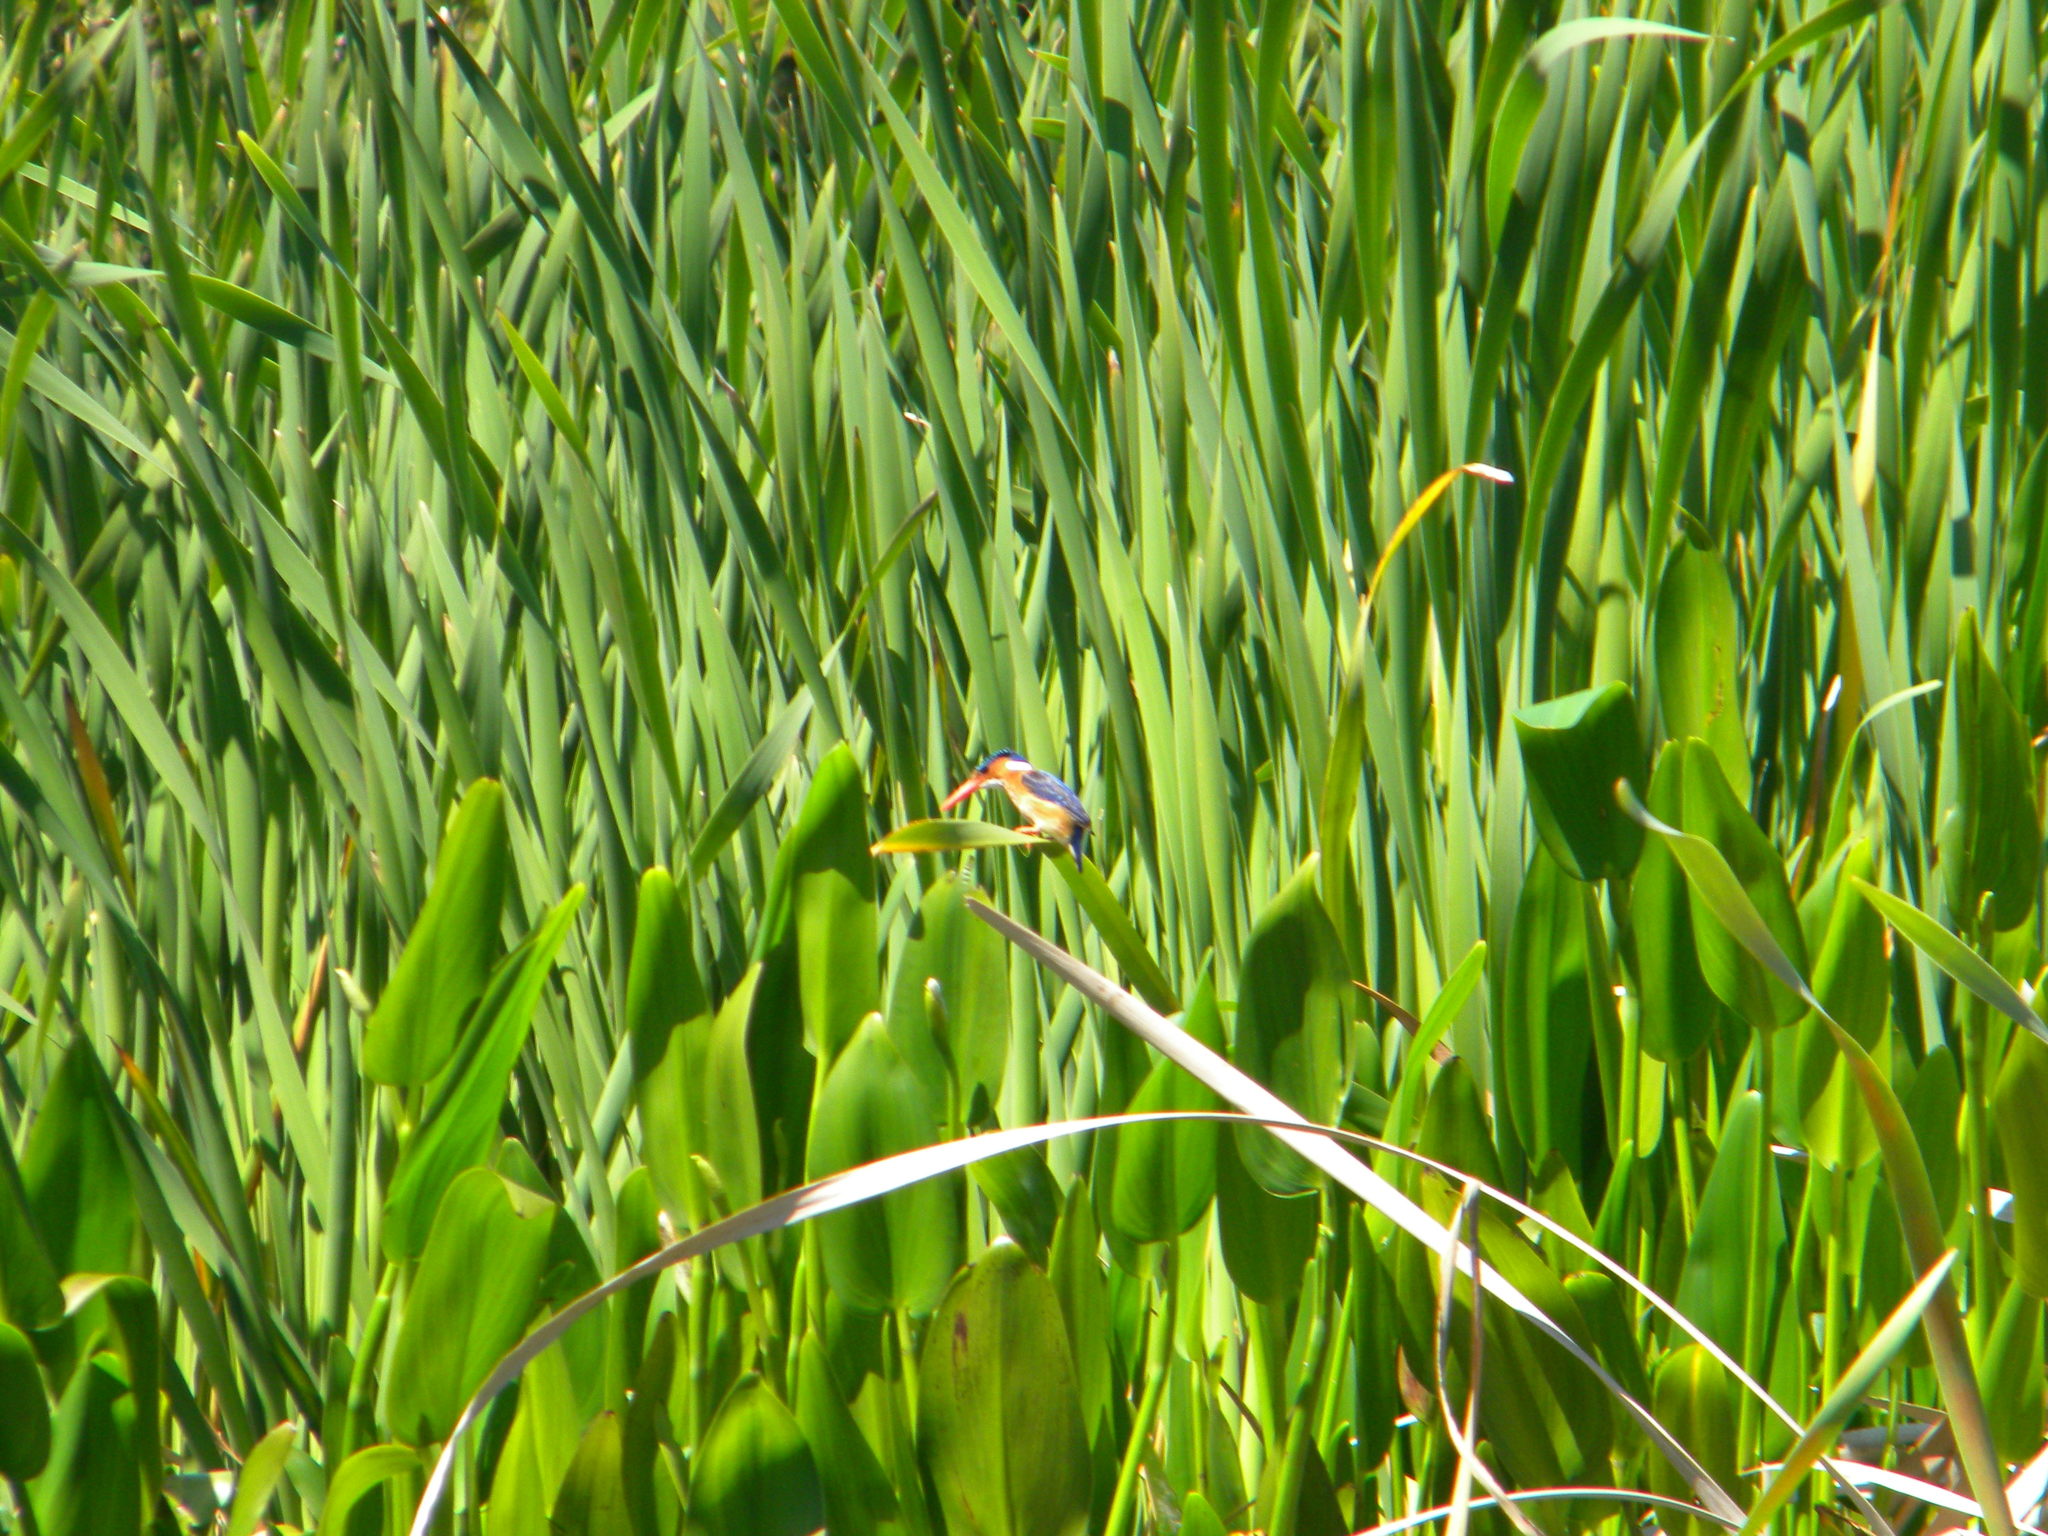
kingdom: Animalia
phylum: Chordata
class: Aves
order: Coraciiformes
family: Alcedinidae
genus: Corythornis
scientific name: Corythornis cristatus
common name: Malachite kingfisher
